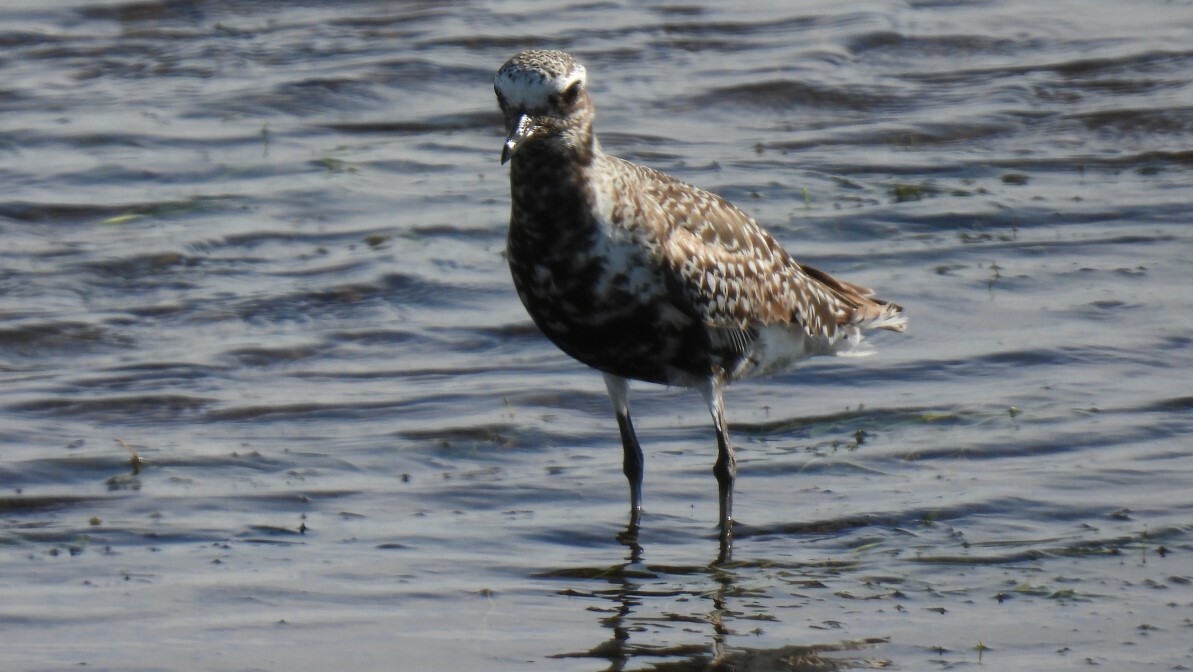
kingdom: Animalia
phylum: Chordata
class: Aves
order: Charadriiformes
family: Charadriidae
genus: Pluvialis
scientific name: Pluvialis squatarola
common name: Grey plover
